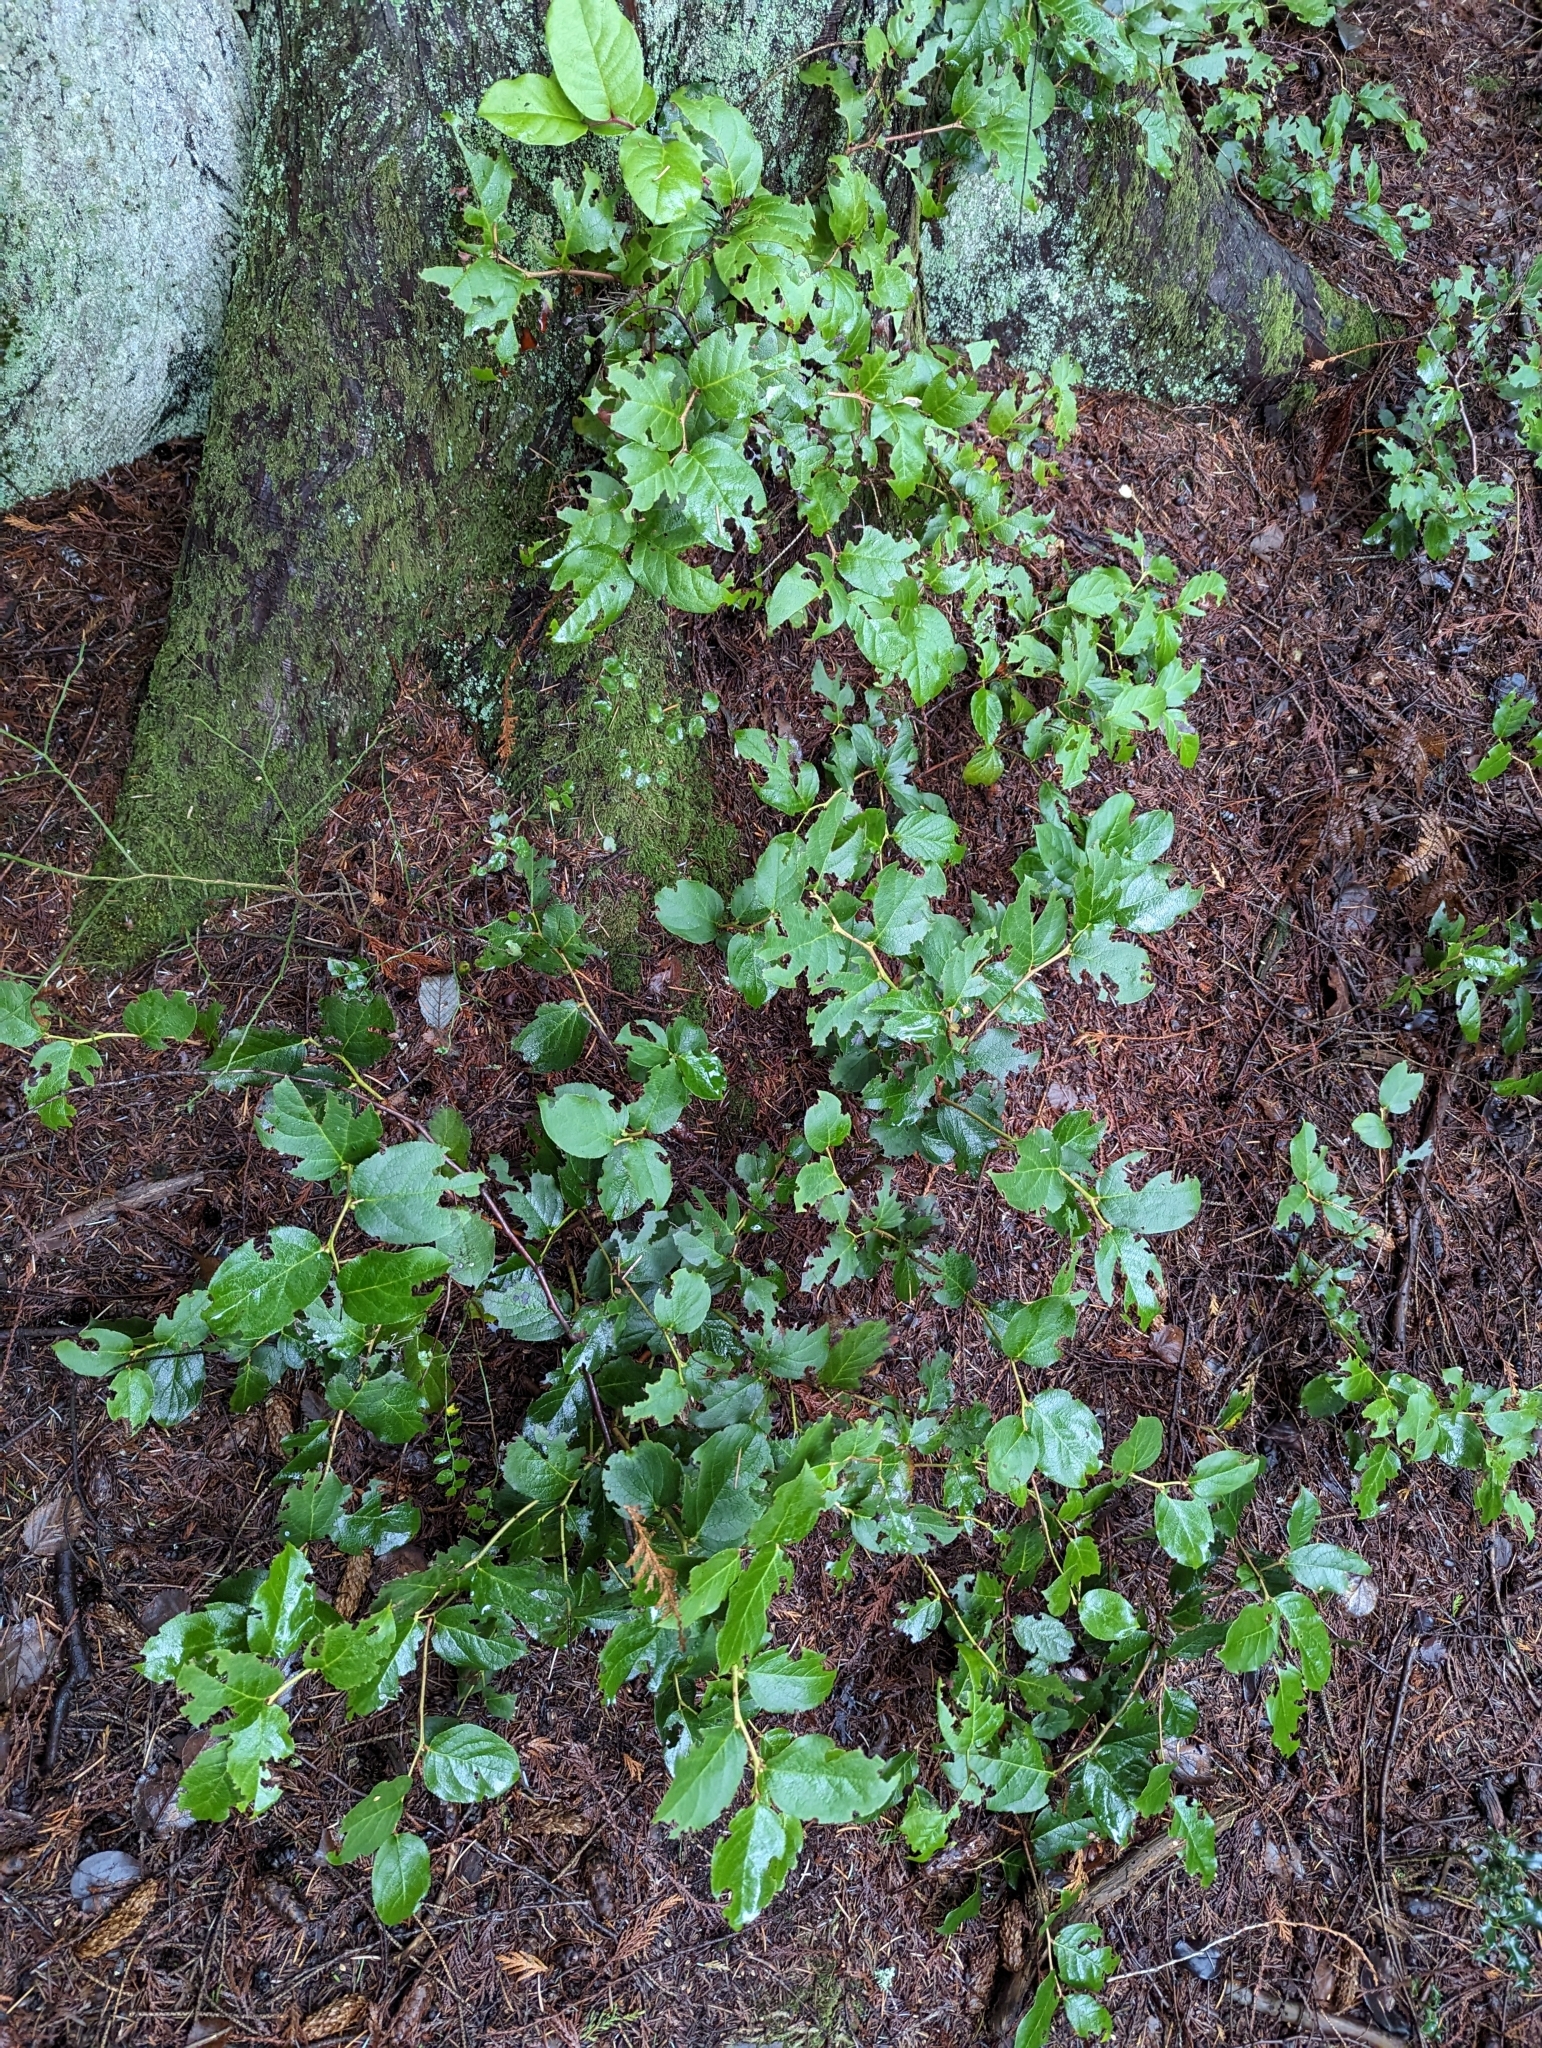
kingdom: Plantae
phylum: Tracheophyta
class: Magnoliopsida
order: Ericales
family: Ericaceae
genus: Gaultheria
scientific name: Gaultheria shallon
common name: Shallon
